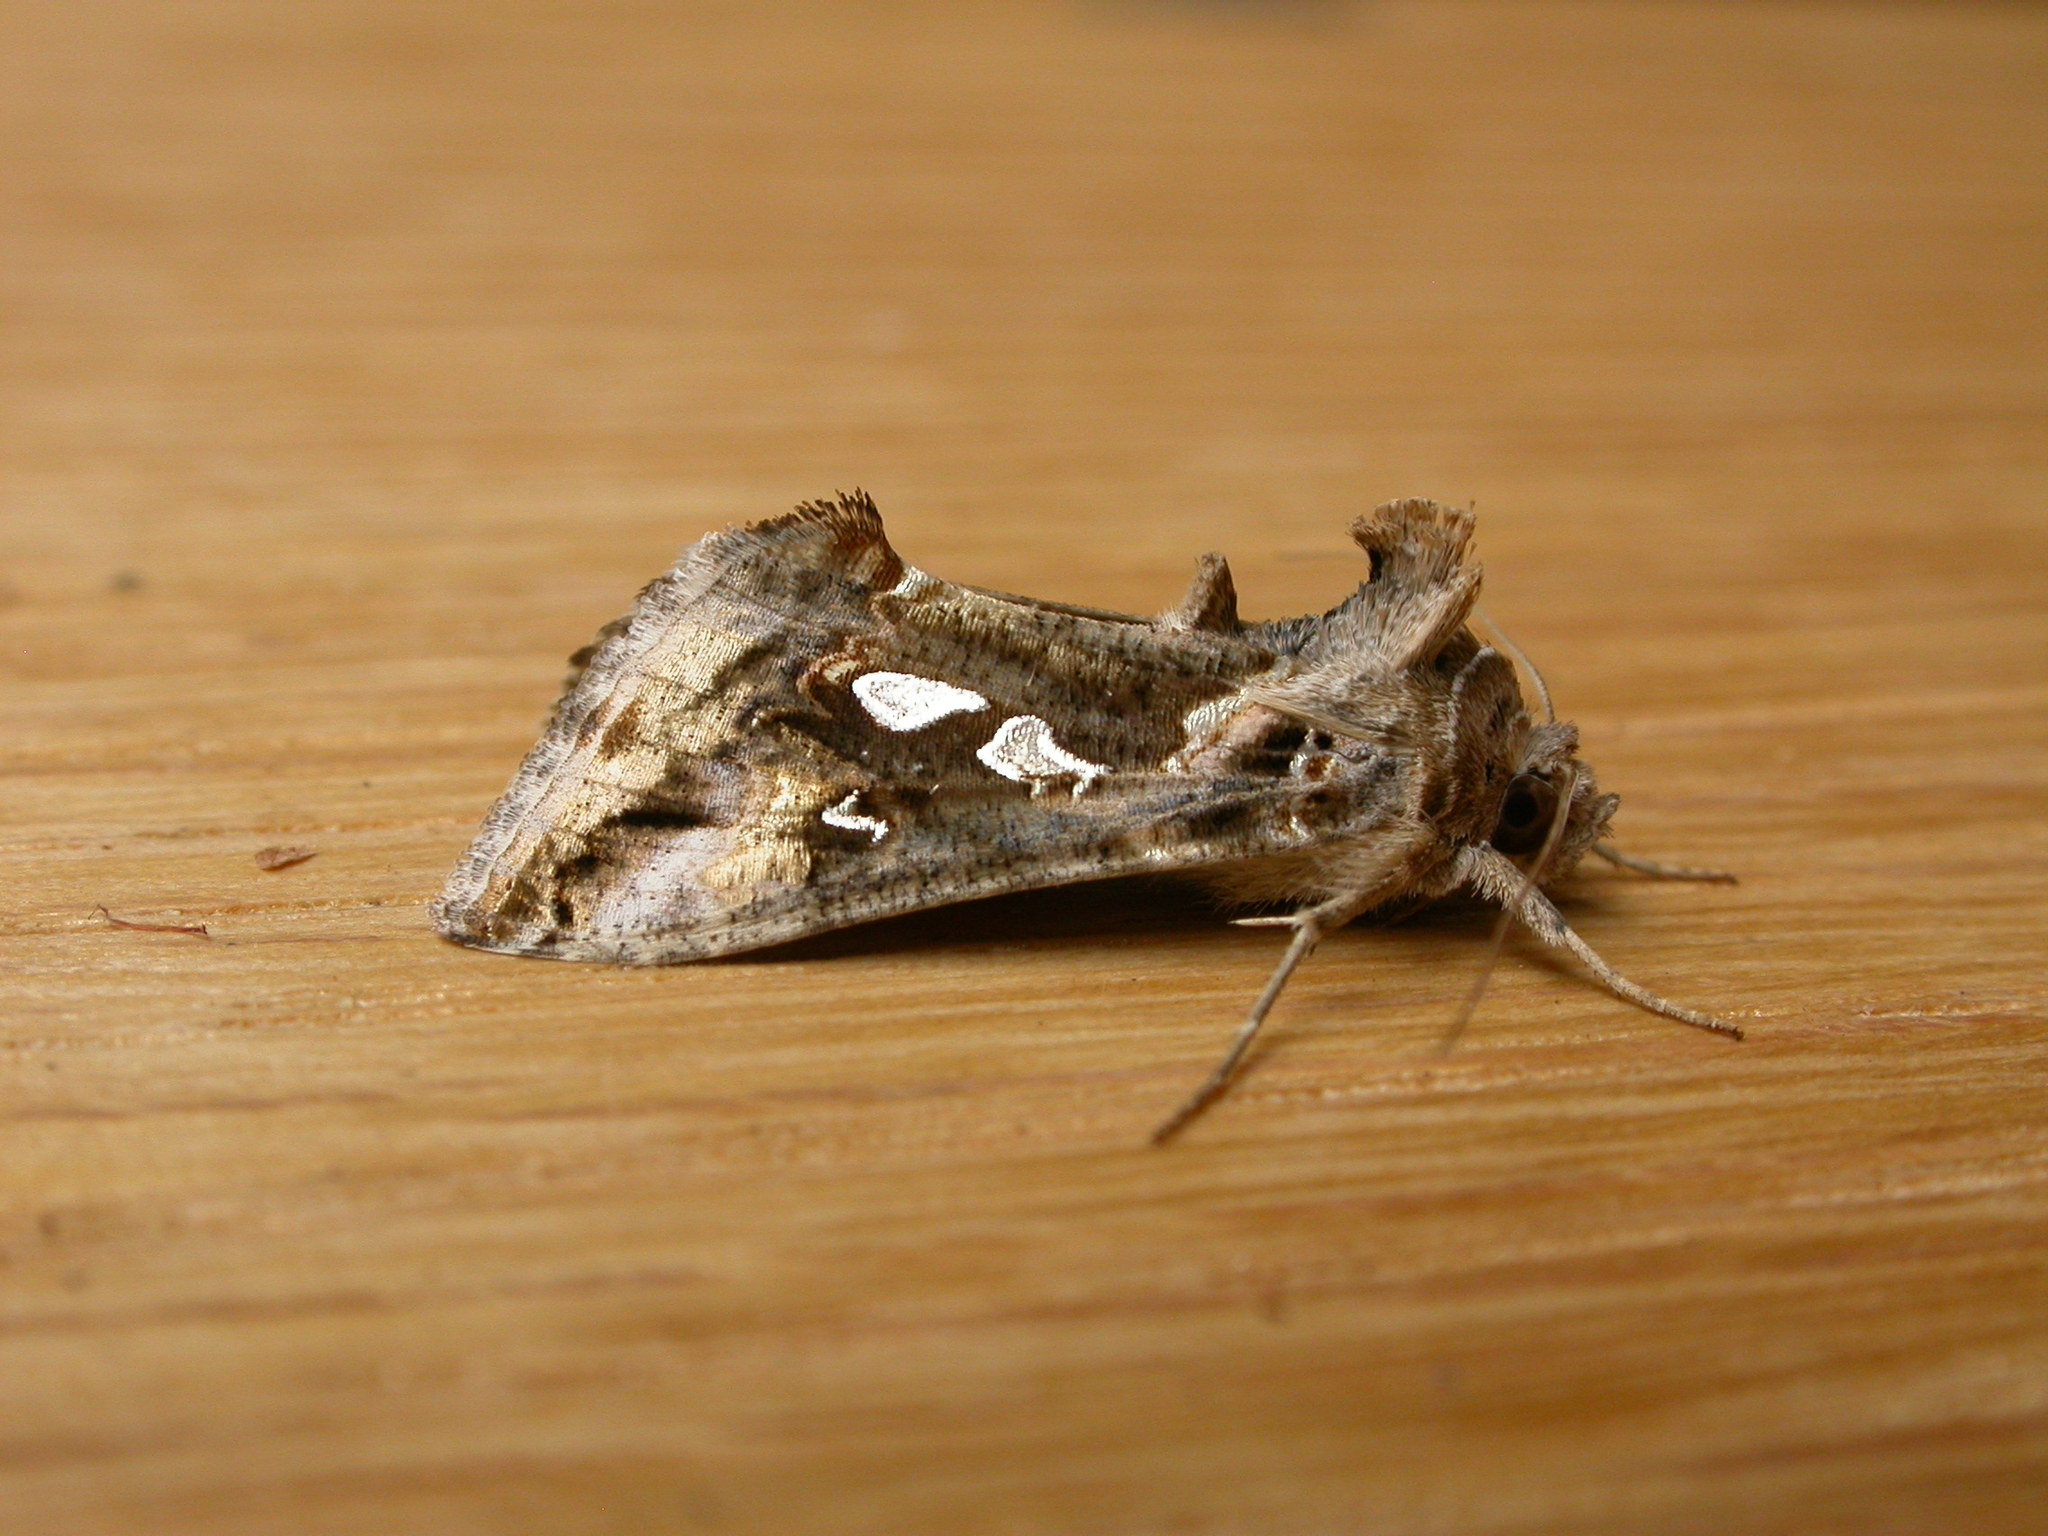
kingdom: Animalia
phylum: Arthropoda
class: Insecta
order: Lepidoptera
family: Noctuidae
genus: Chrysodeixis
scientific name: Chrysodeixis argentifera
